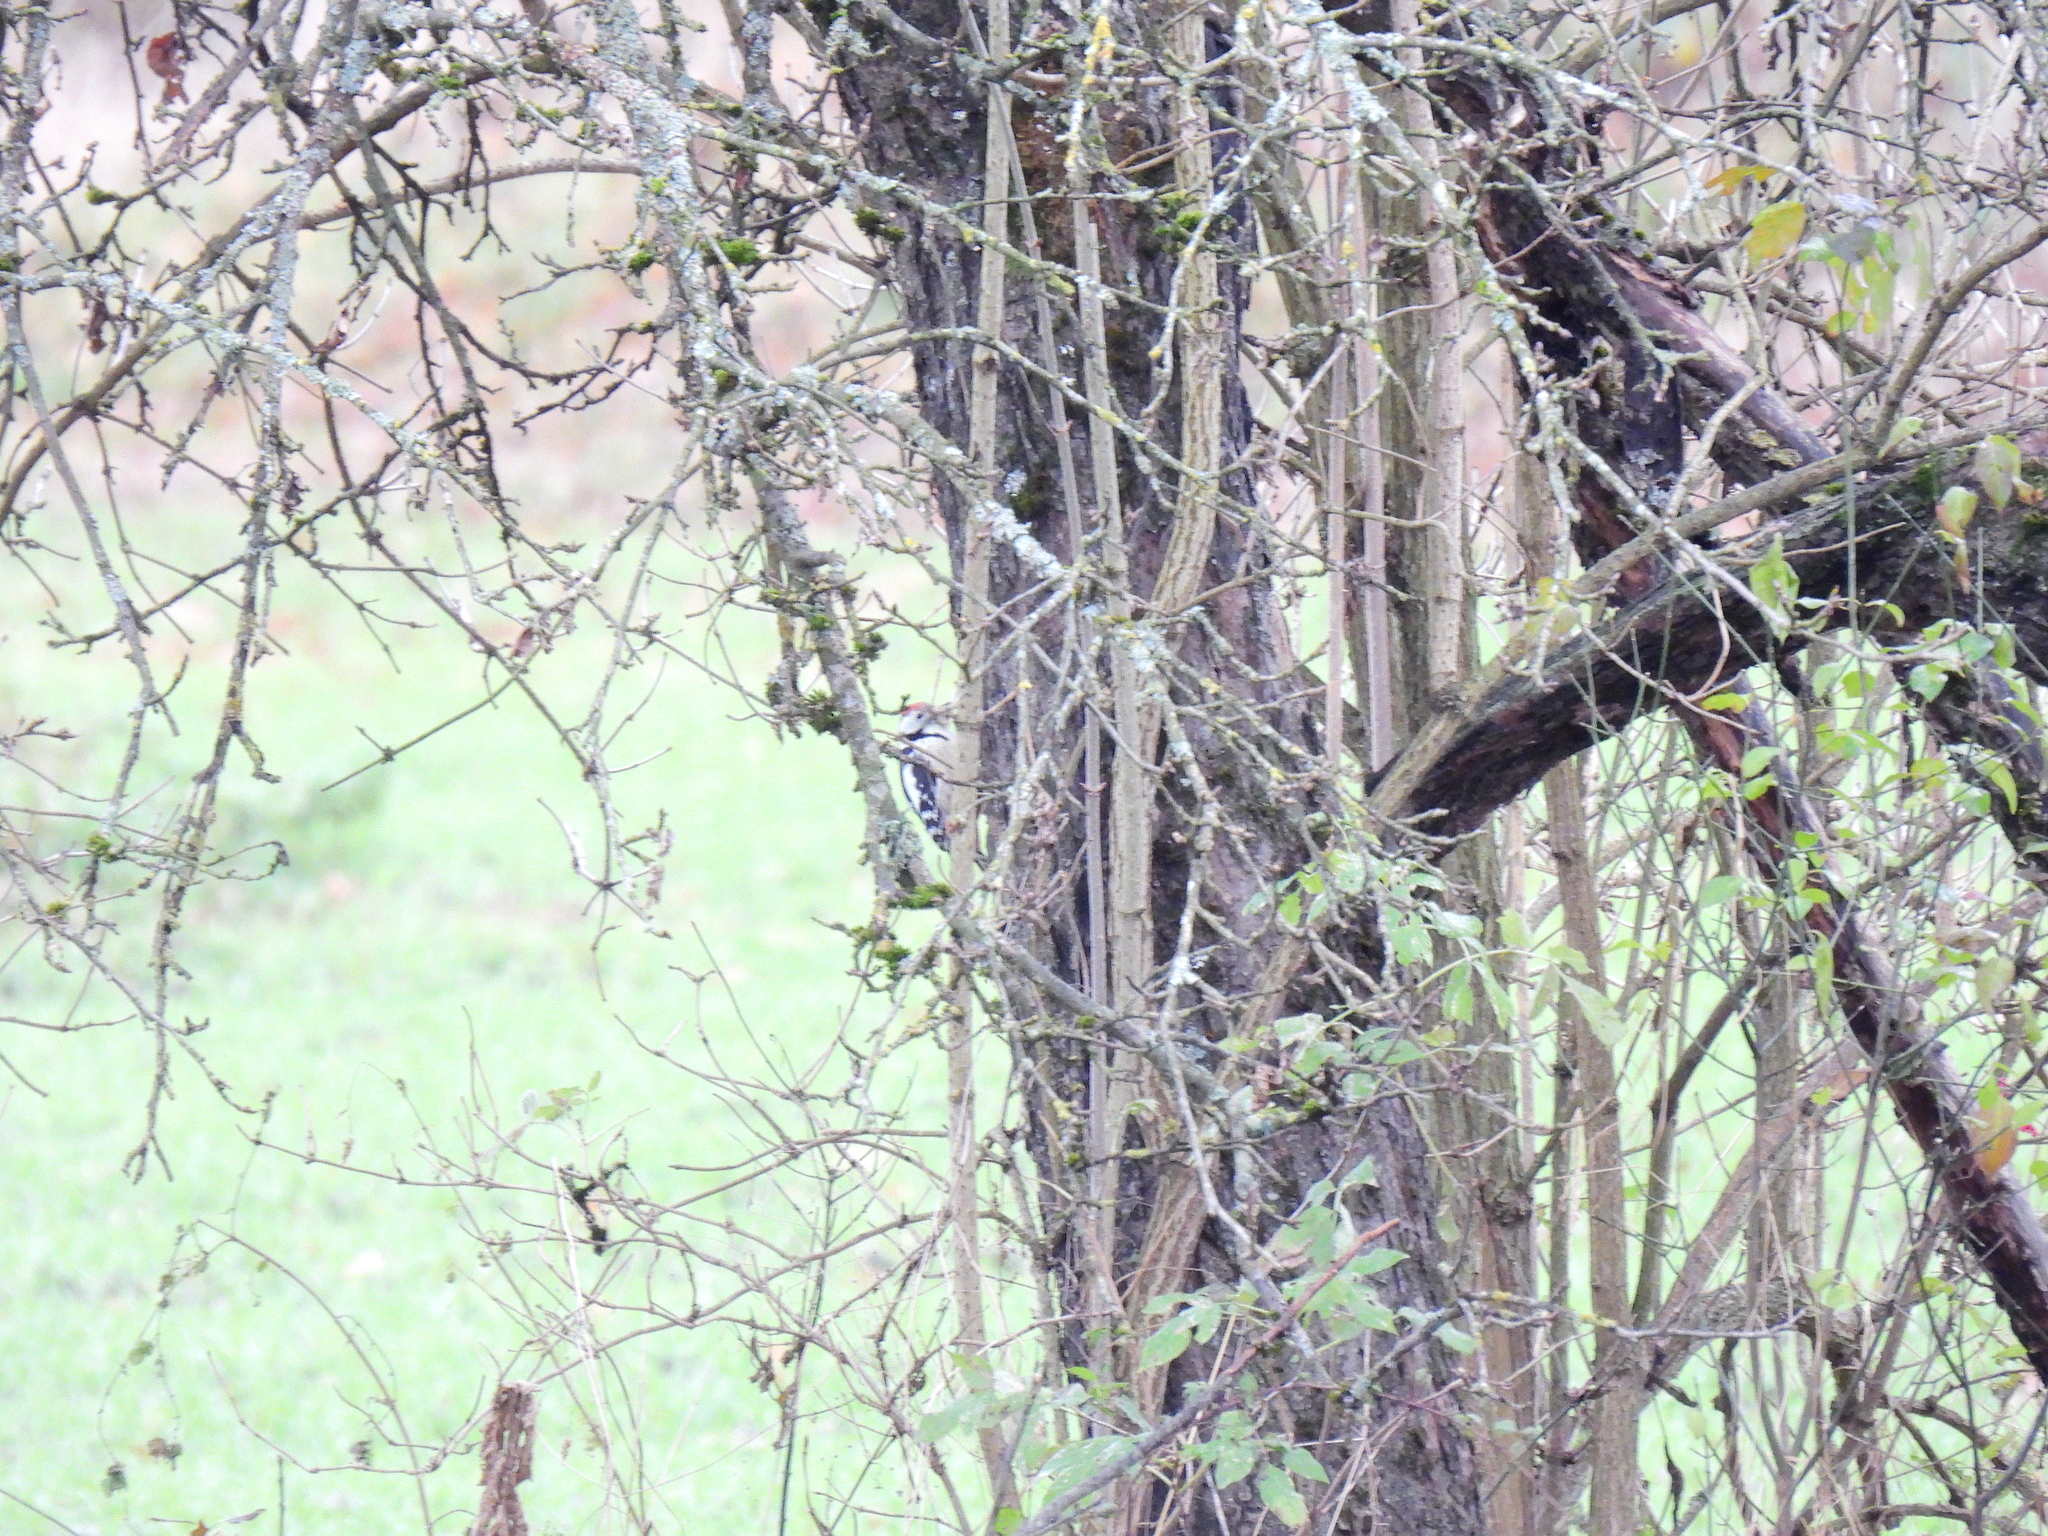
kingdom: Animalia
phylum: Chordata
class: Aves
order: Piciformes
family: Picidae
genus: Dendrocoptes
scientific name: Dendrocoptes medius
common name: Middle spotted woodpecker
